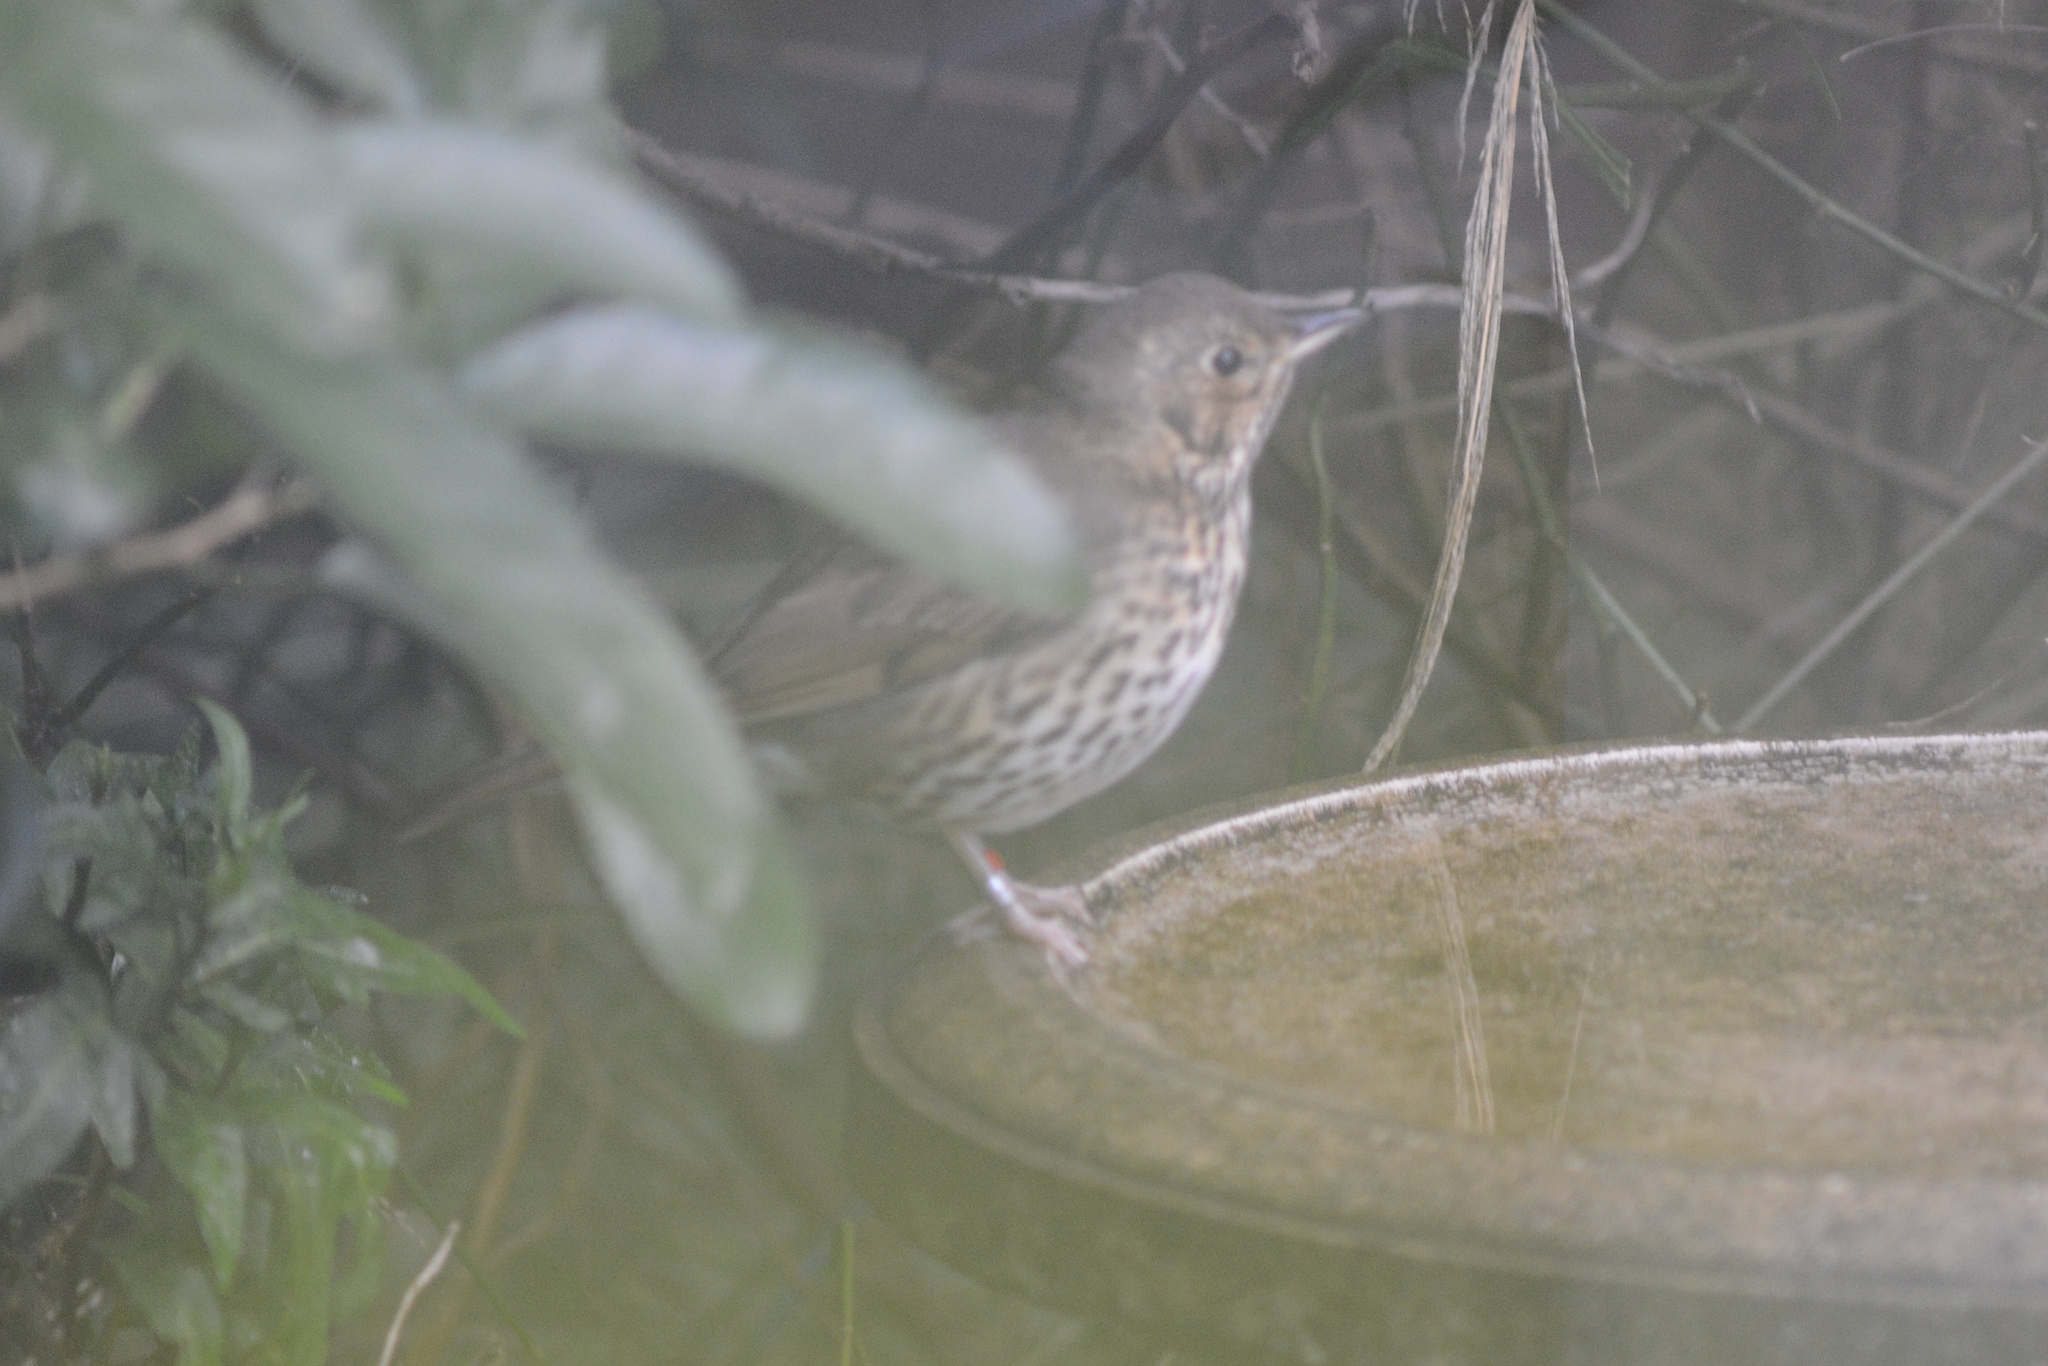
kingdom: Animalia
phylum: Chordata
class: Aves
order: Passeriformes
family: Turdidae
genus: Turdus
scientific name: Turdus philomelos
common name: Song thrush
